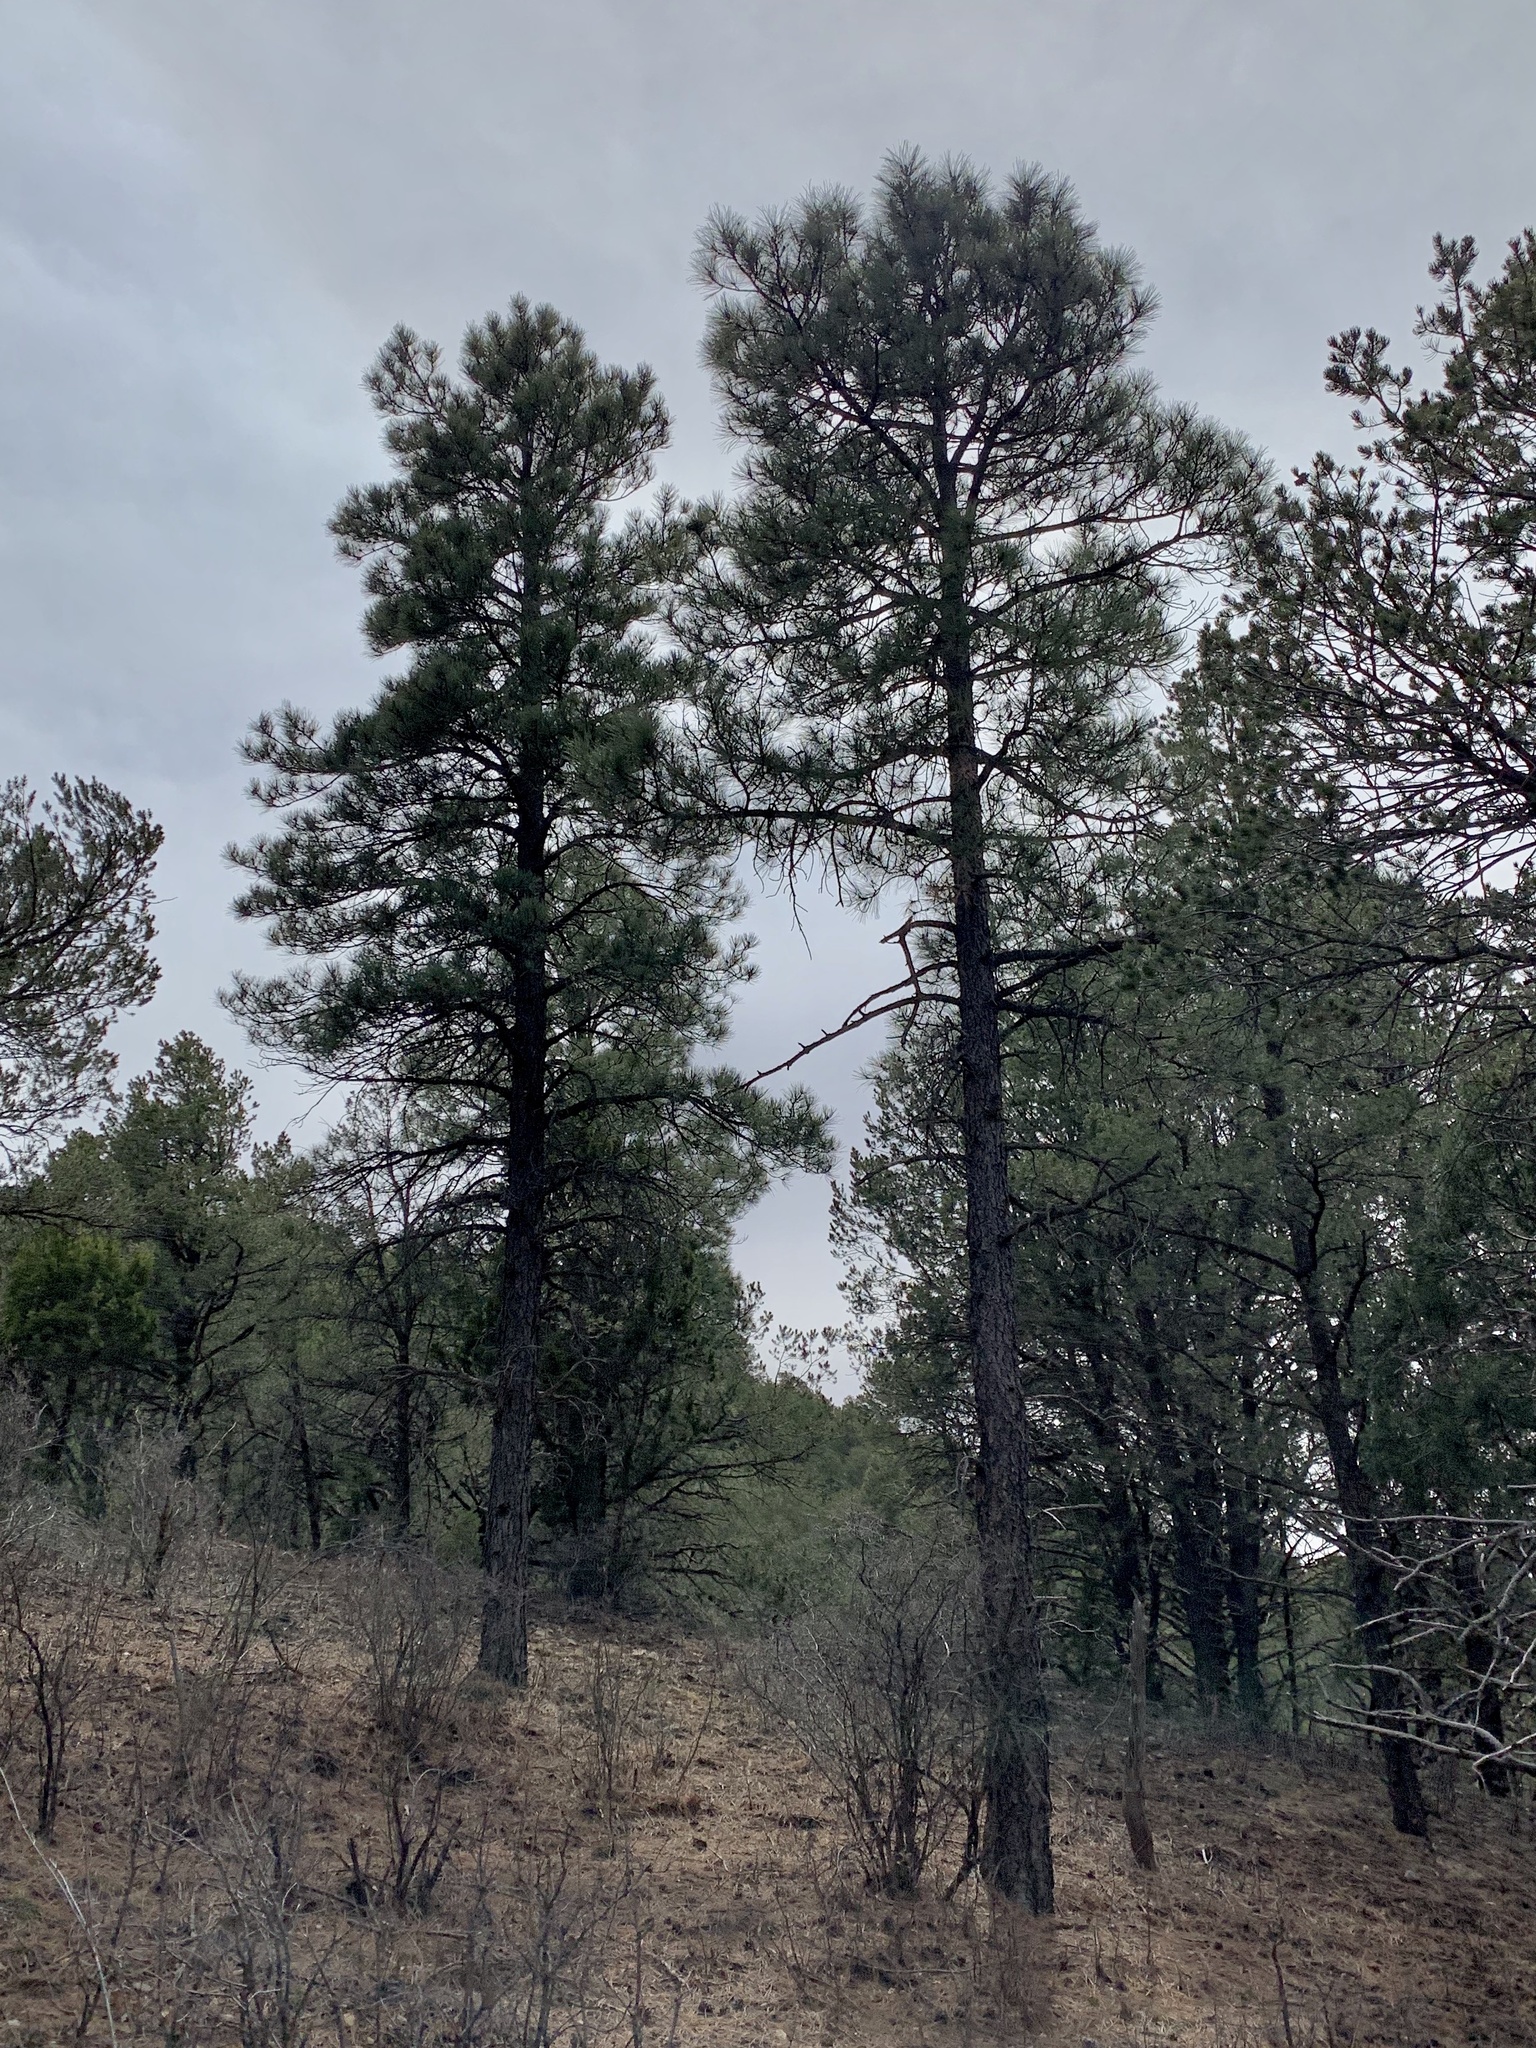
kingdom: Plantae
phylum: Tracheophyta
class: Pinopsida
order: Pinales
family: Pinaceae
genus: Pinus
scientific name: Pinus ponderosa
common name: Western yellow-pine
